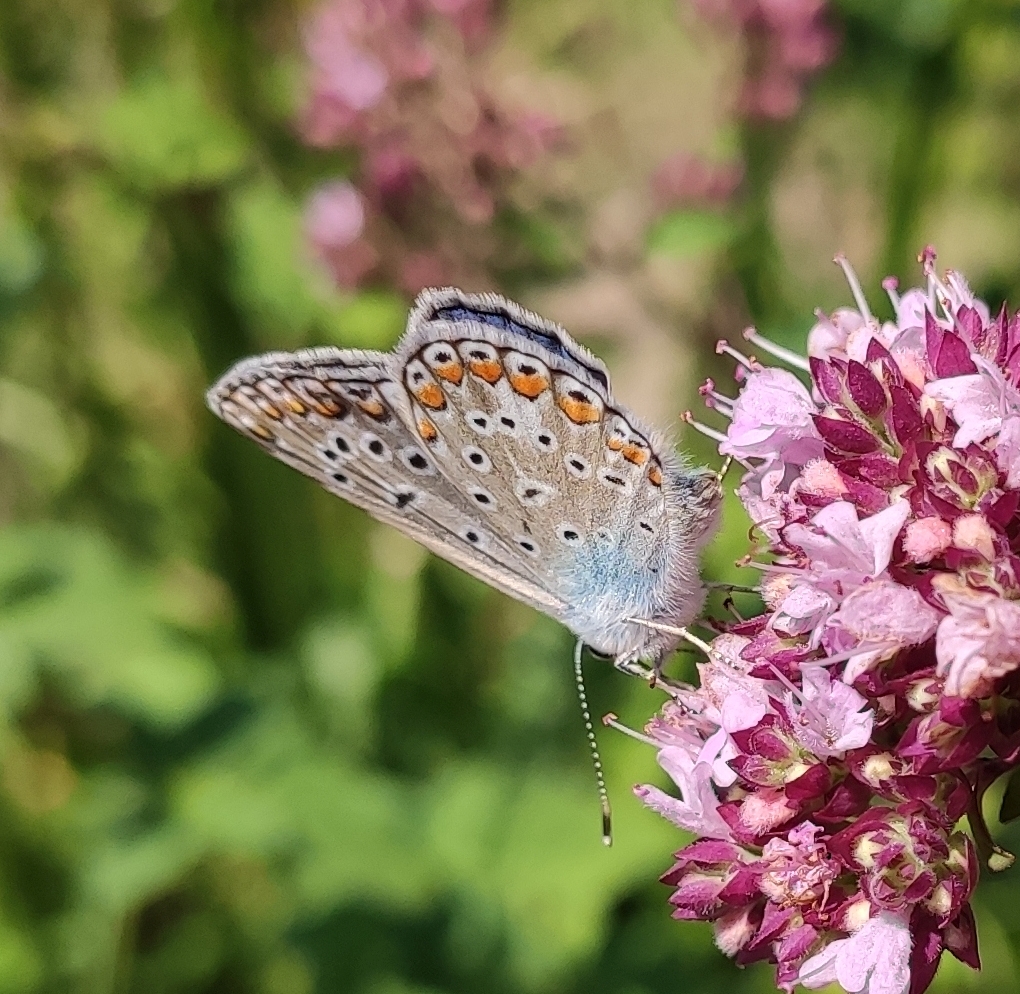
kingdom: Animalia
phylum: Arthropoda
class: Insecta
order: Lepidoptera
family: Lycaenidae
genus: Polyommatus
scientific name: Polyommatus icarus
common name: Common blue
